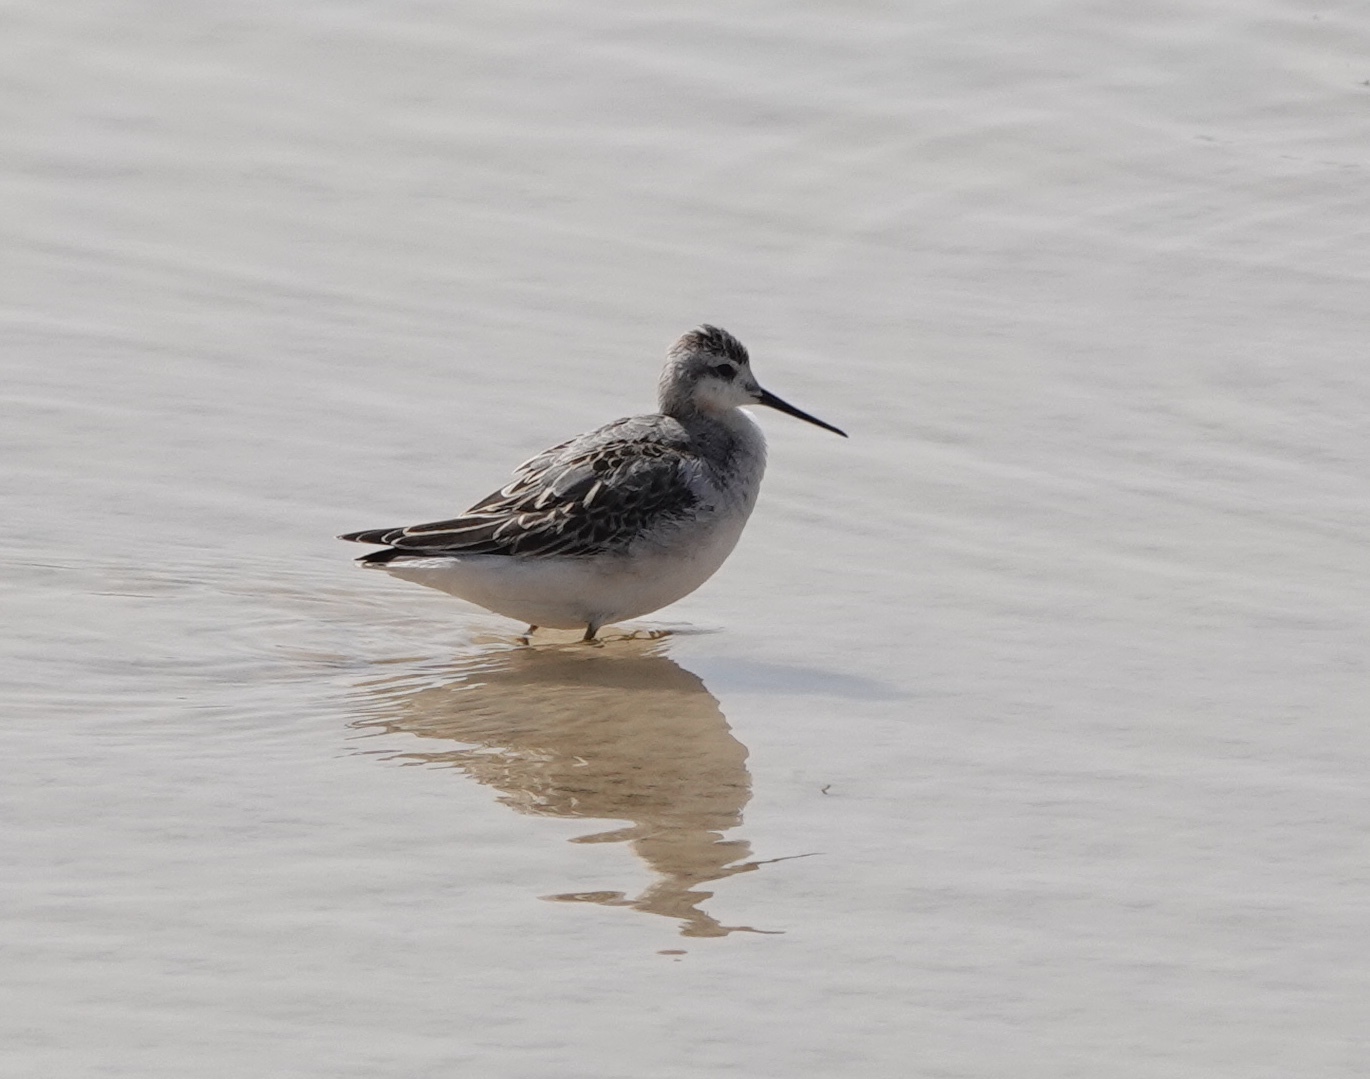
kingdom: Animalia
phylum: Chordata
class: Aves
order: Charadriiformes
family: Scolopacidae
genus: Phalaropus
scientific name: Phalaropus tricolor
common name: Wilson's phalarope
